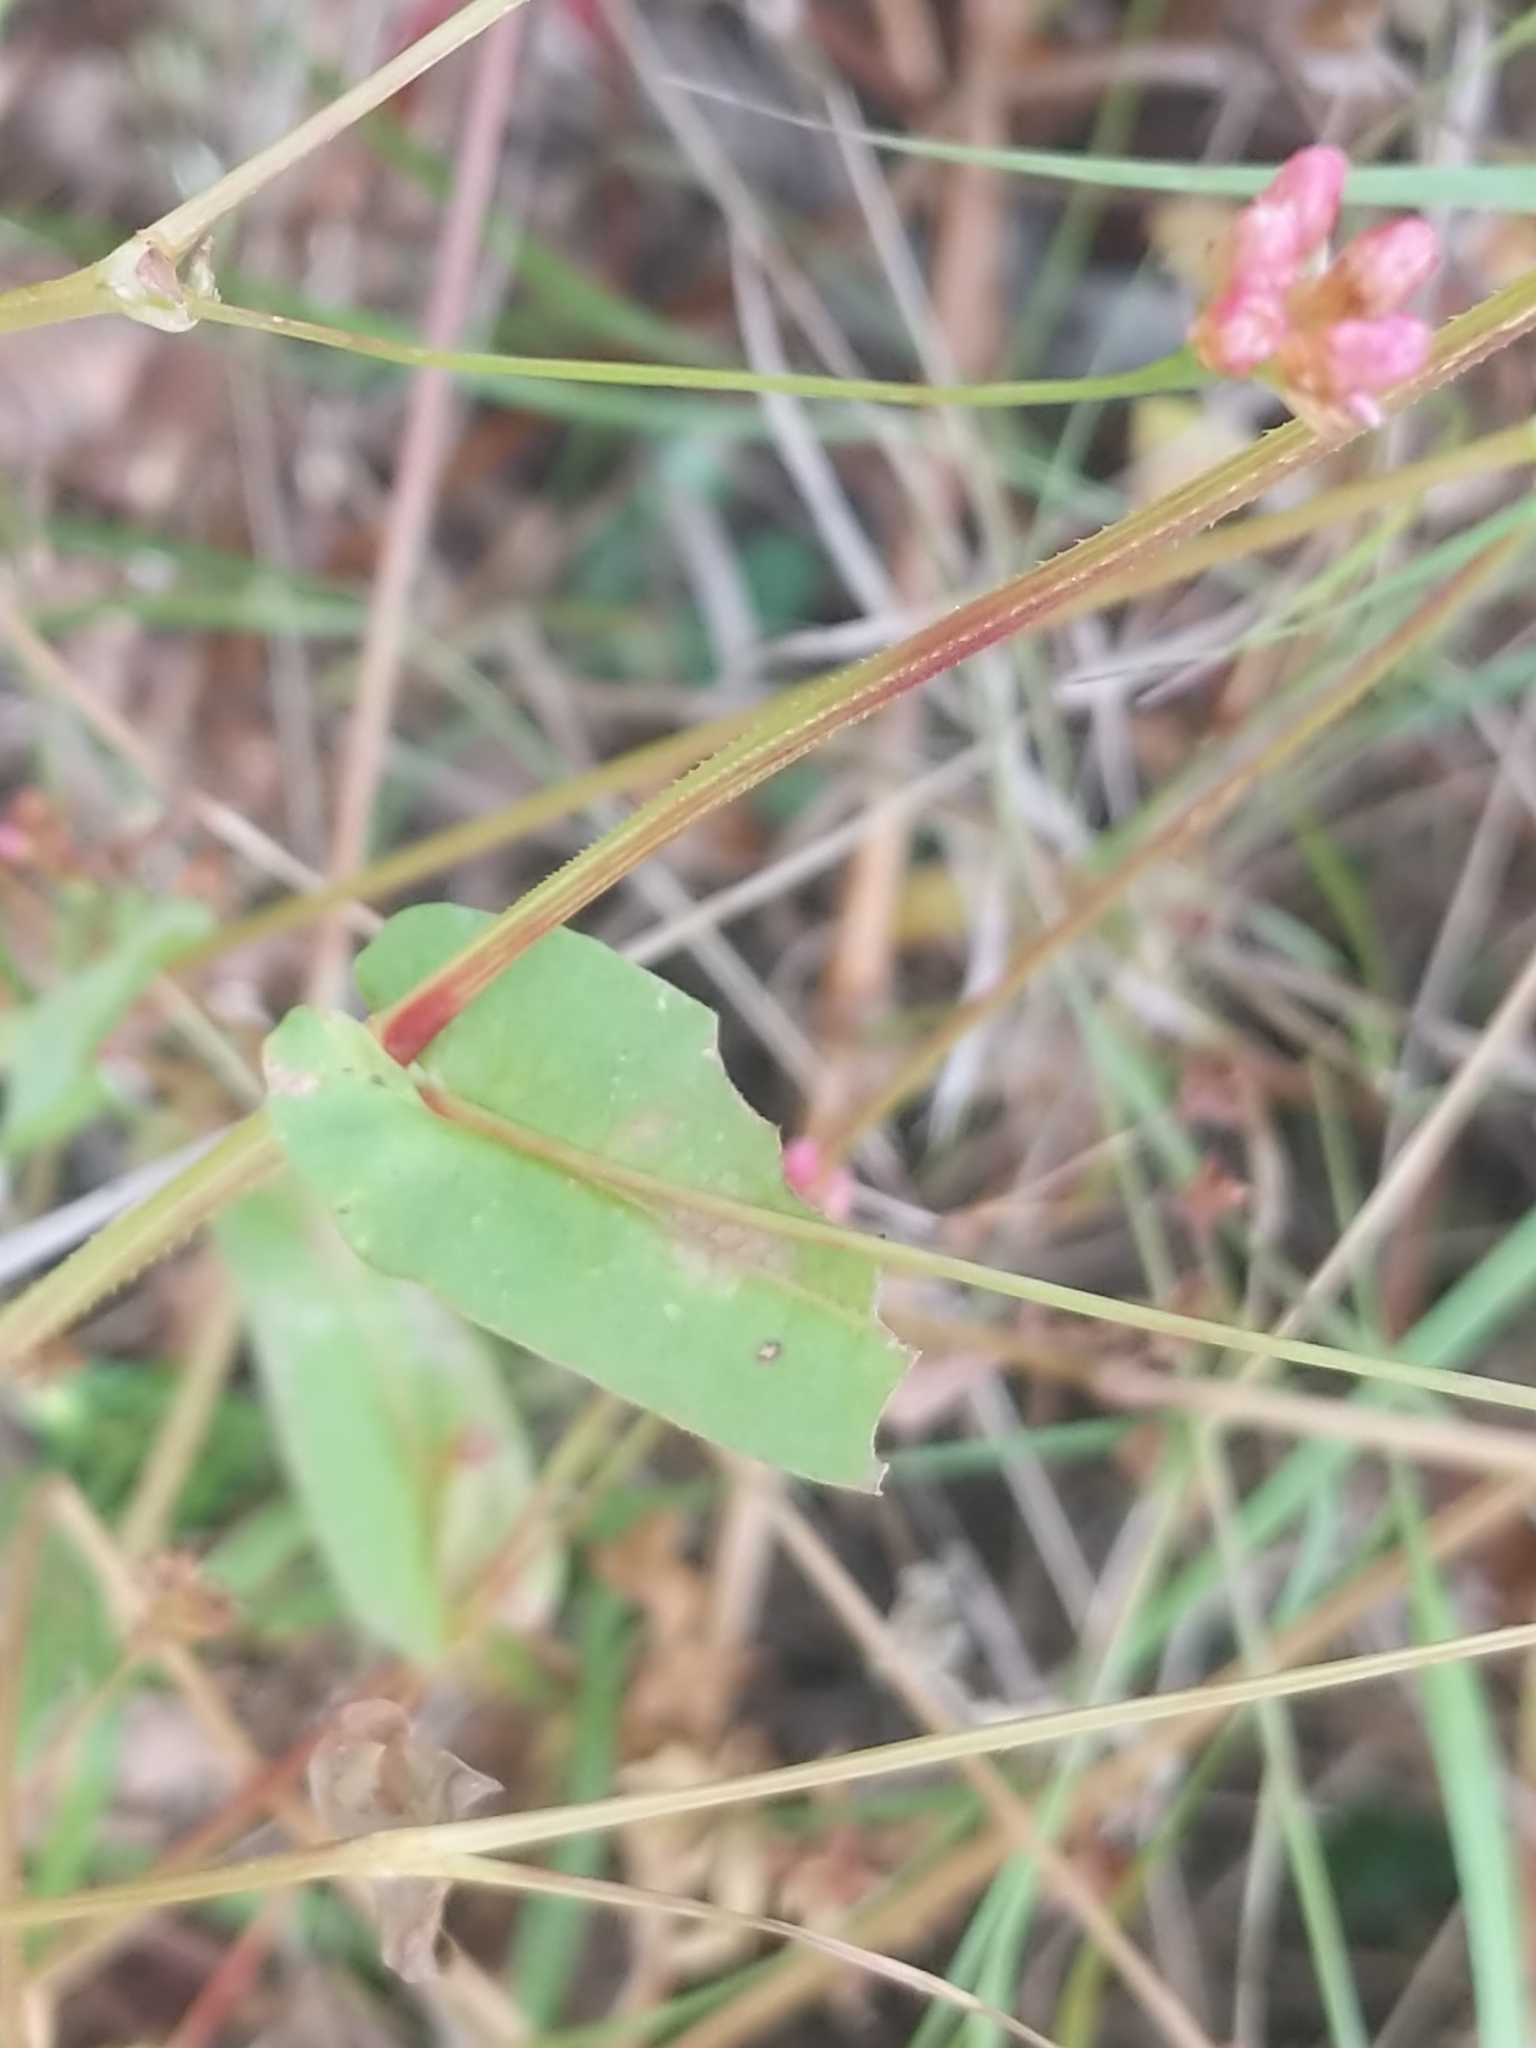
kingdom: Plantae
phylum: Tracheophyta
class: Magnoliopsida
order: Caryophyllales
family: Polygonaceae
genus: Persicaria
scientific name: Persicaria sagittata
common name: American tearthumb
